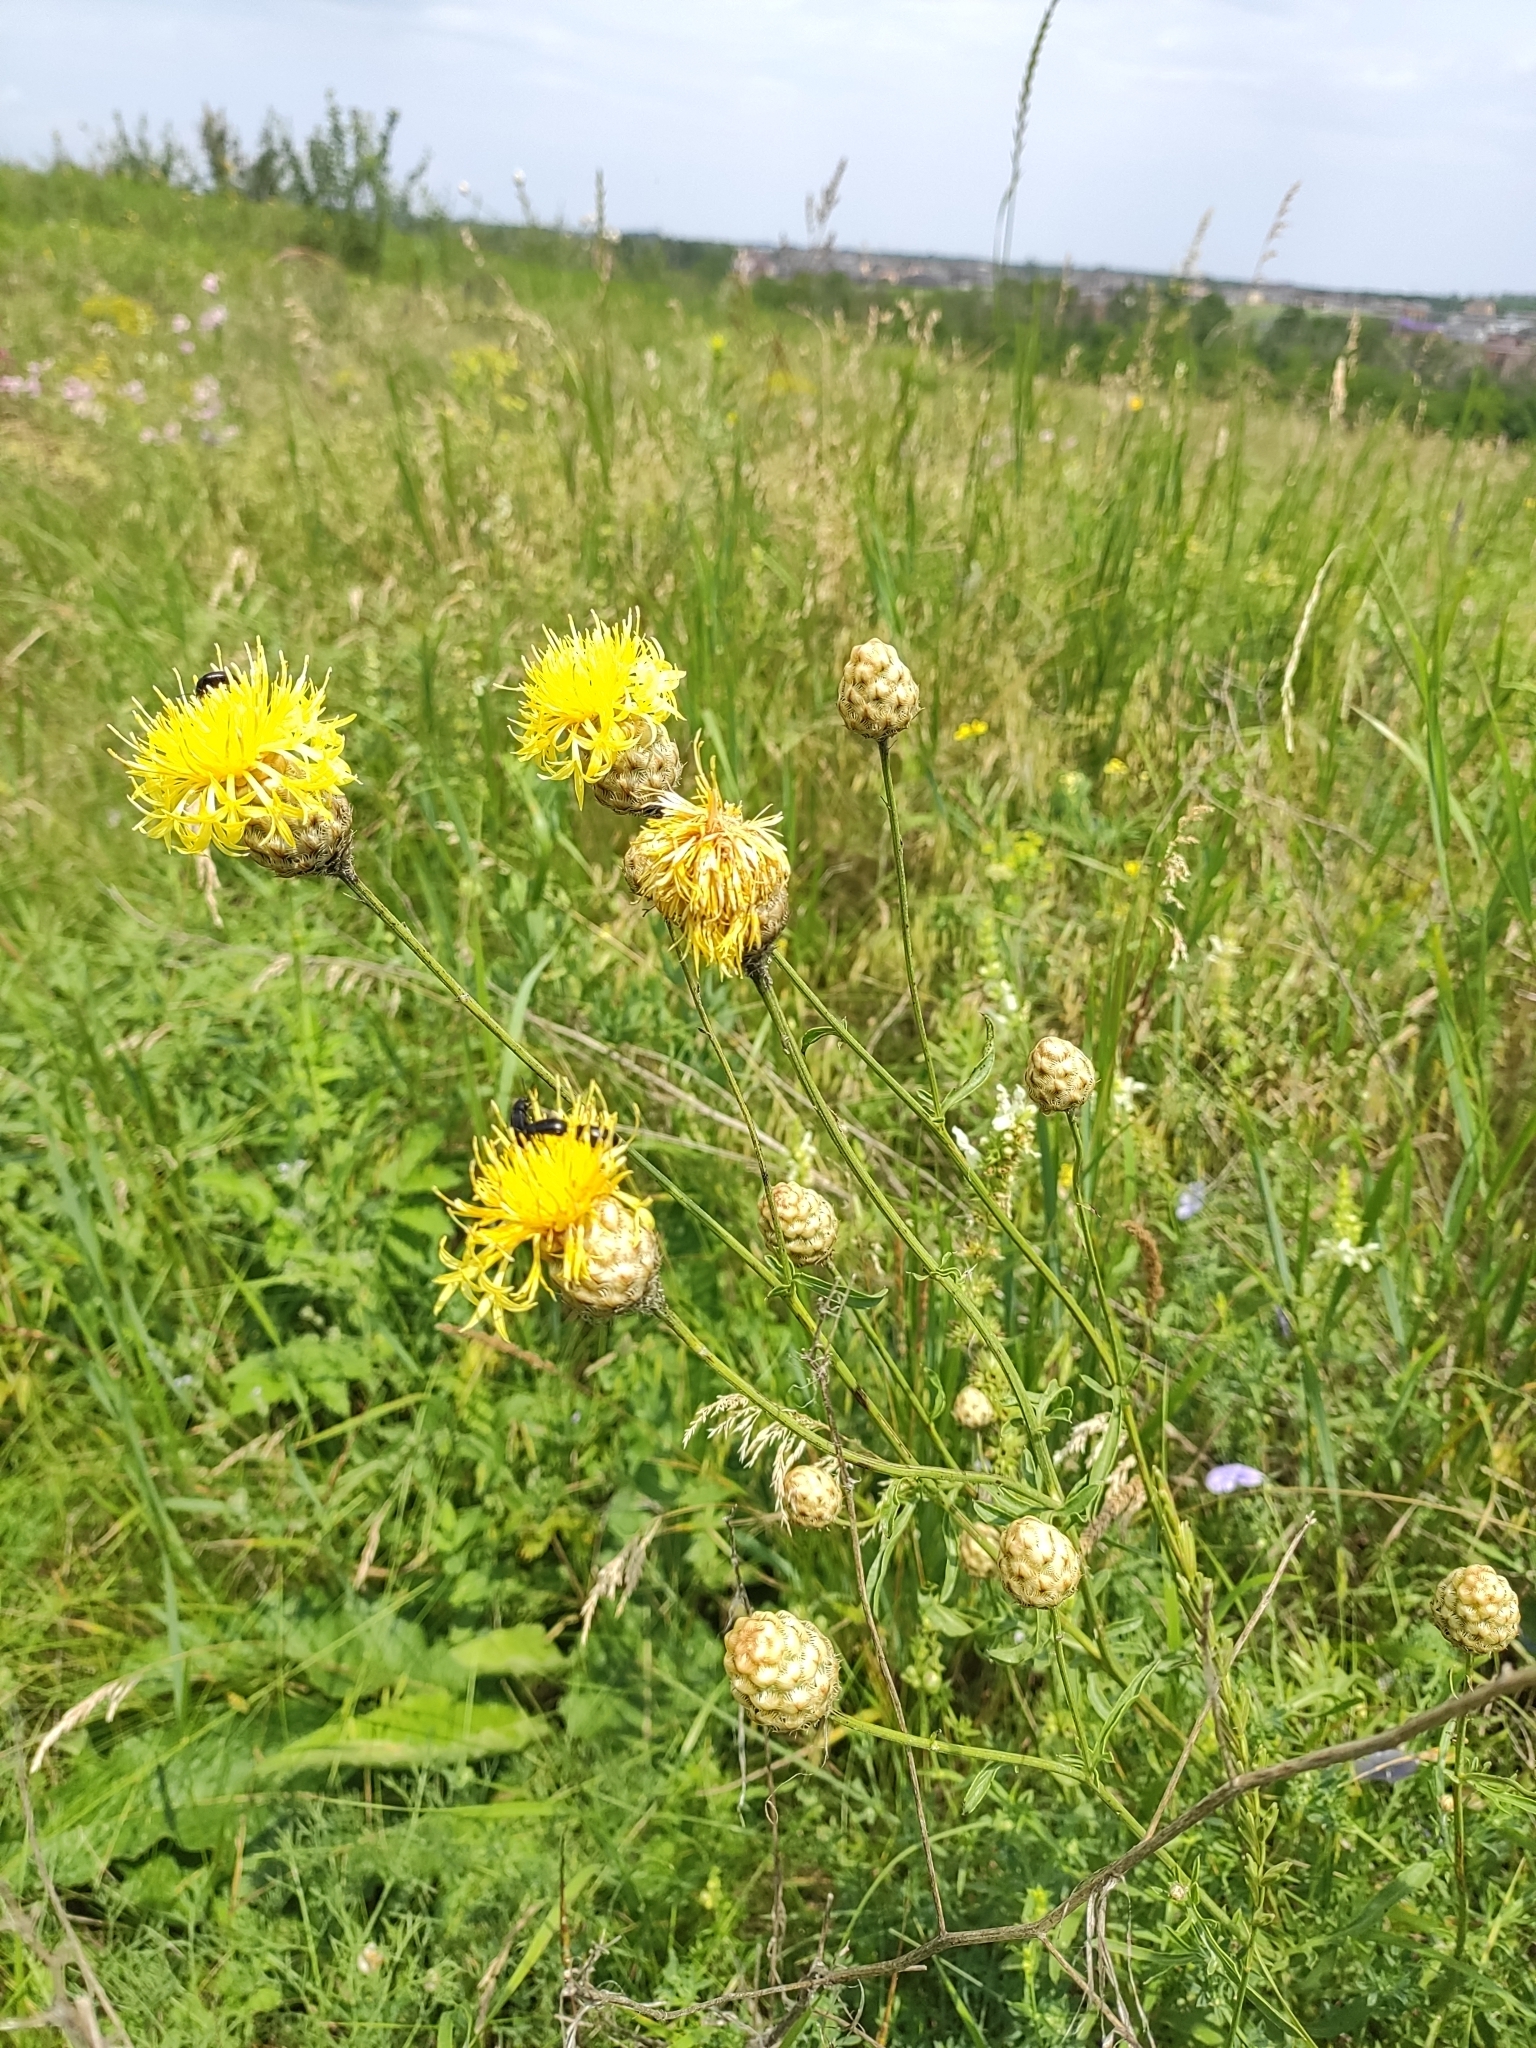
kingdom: Plantae
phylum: Tracheophyta
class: Magnoliopsida
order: Asterales
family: Asteraceae
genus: Centaurea
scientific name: Centaurea orientalis
